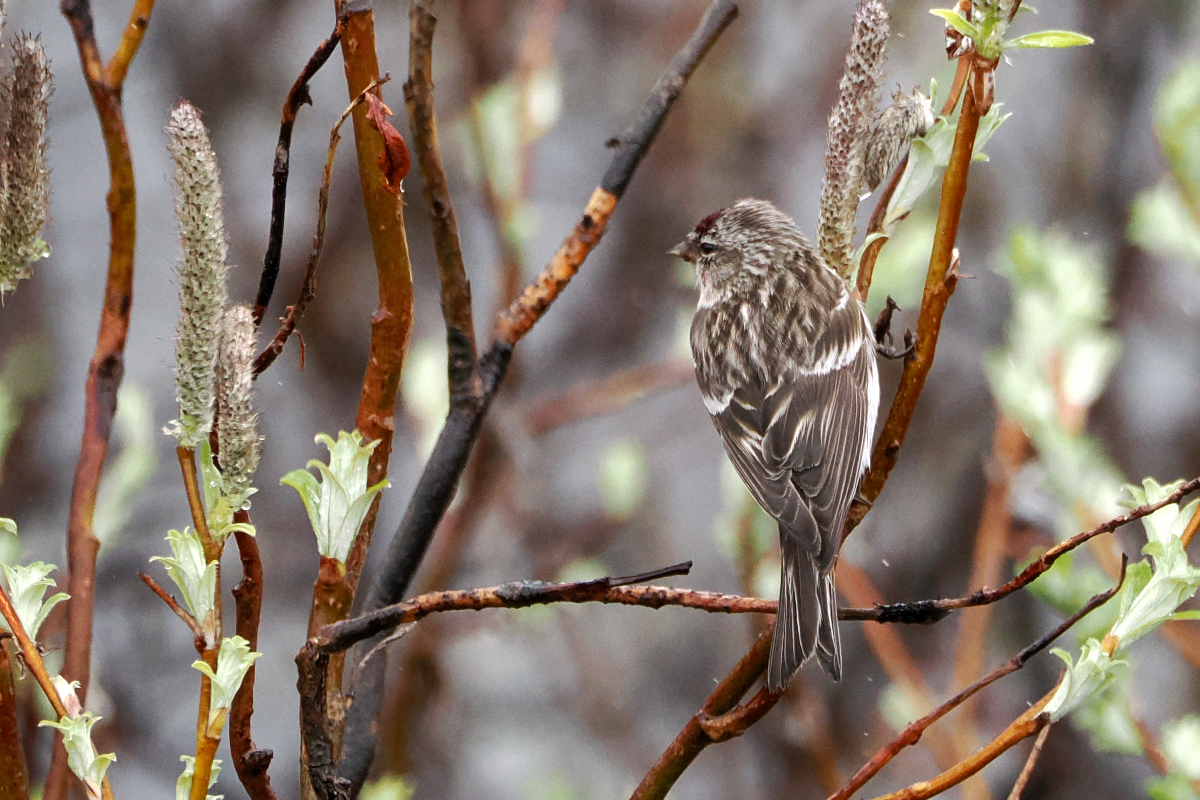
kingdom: Animalia
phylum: Chordata
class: Aves
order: Passeriformes
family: Fringillidae
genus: Acanthis
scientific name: Acanthis flammea
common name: Common redpoll
